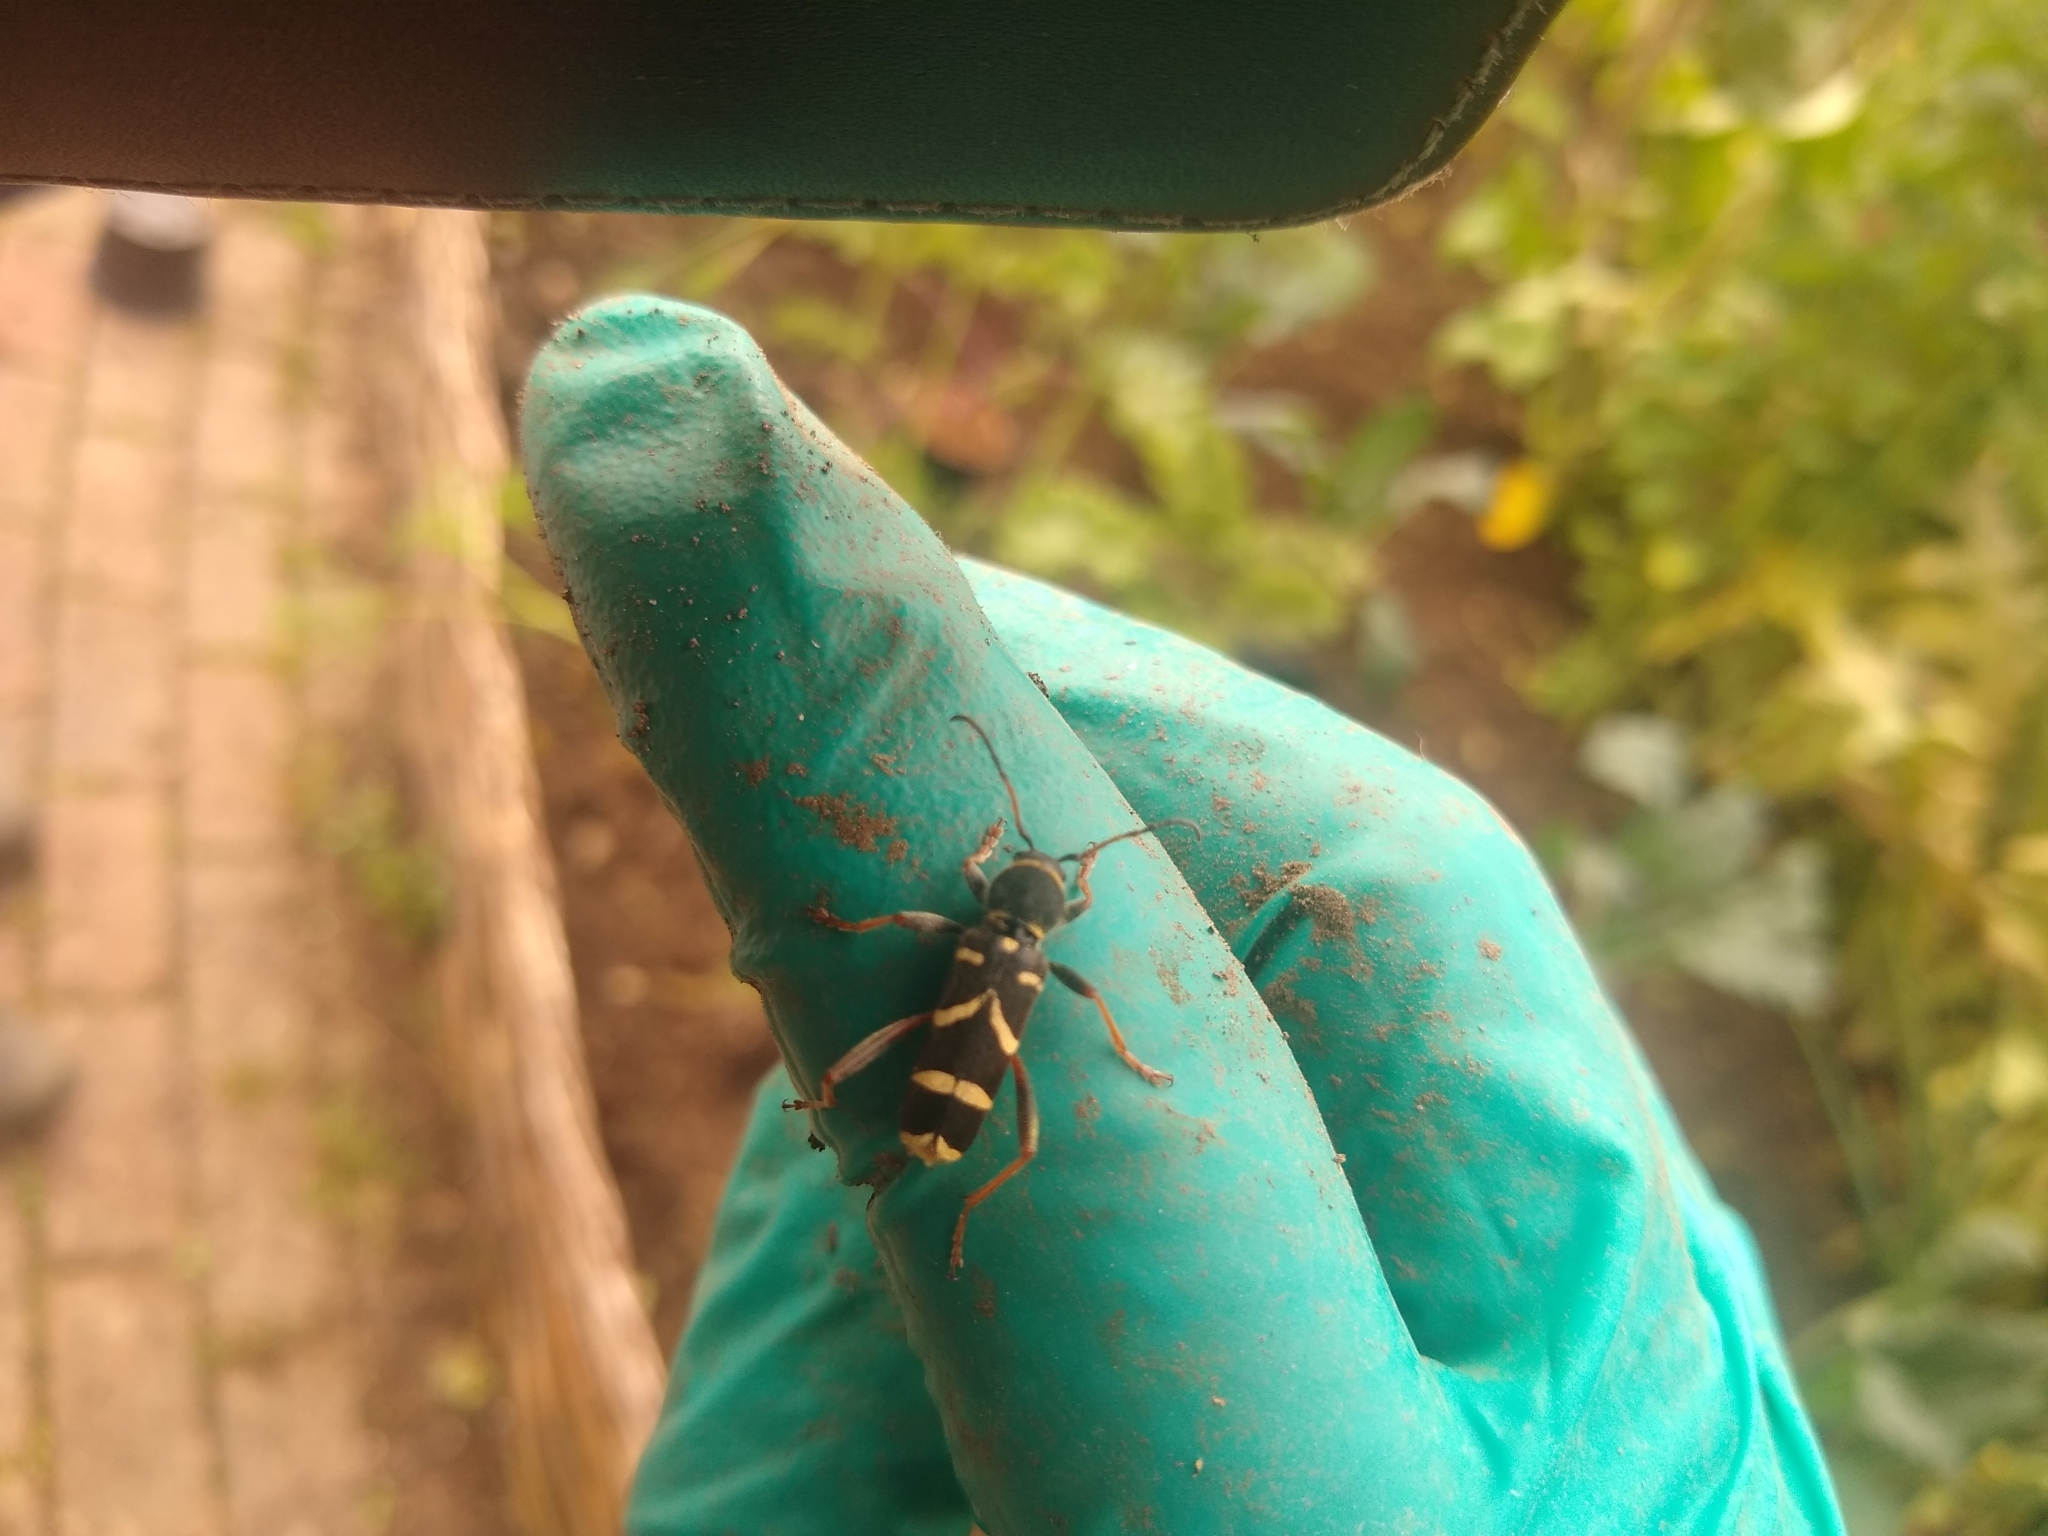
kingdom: Animalia
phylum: Arthropoda
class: Insecta
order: Coleoptera
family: Cerambycidae
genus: Clytus
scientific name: Clytus arietis
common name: Wasp beetle
